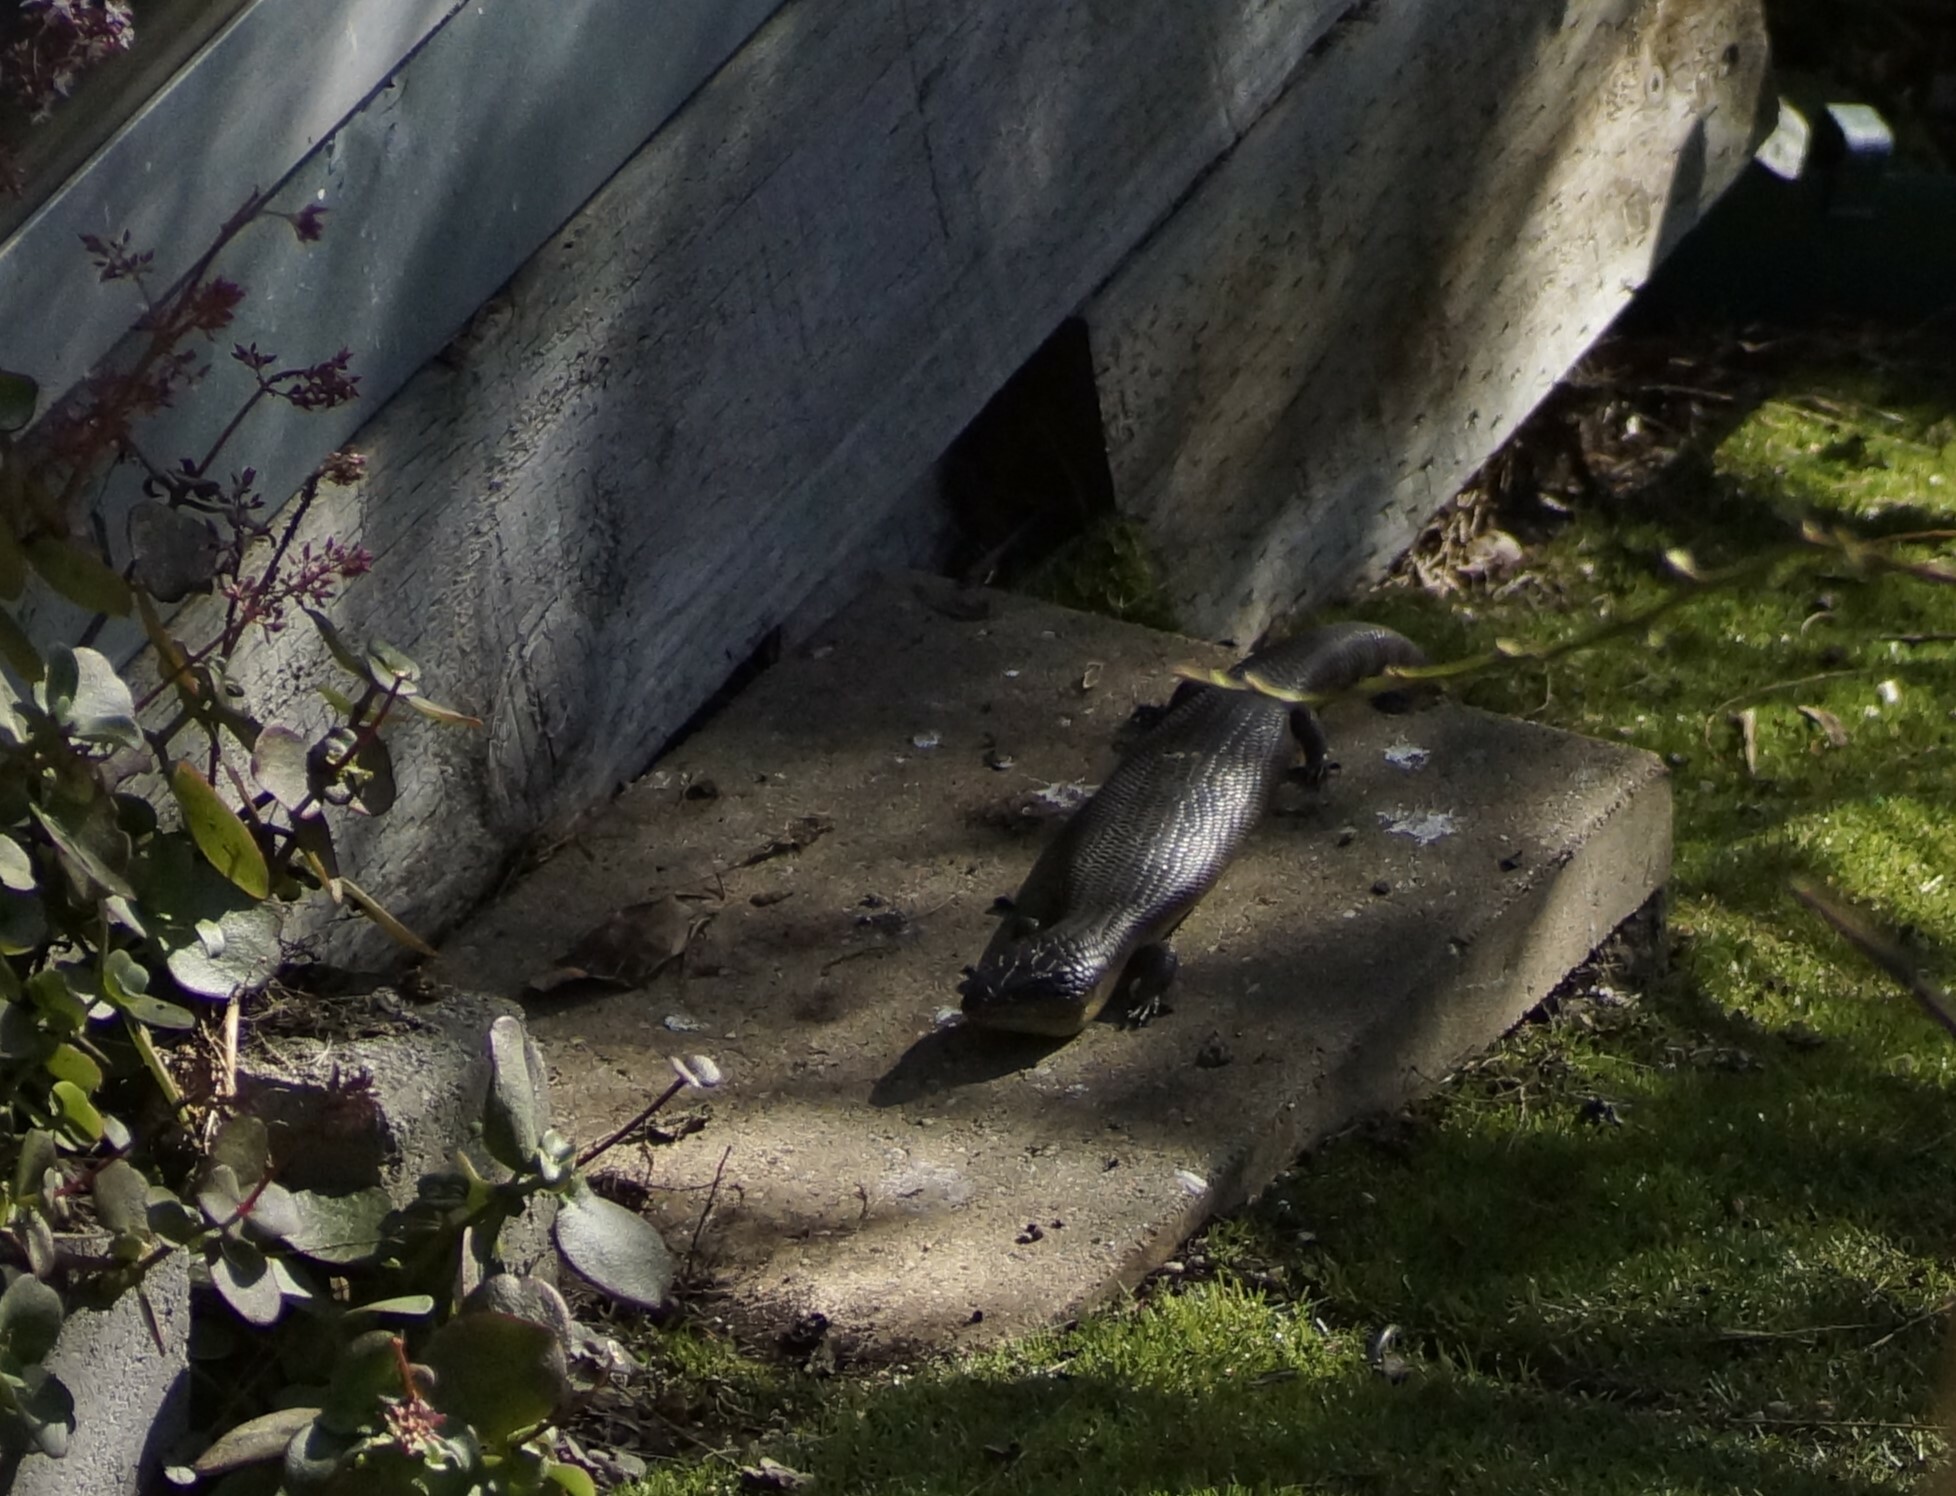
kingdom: Animalia
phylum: Chordata
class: Squamata
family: Scincidae
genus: Tiliqua
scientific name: Tiliqua scincoides
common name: Common bluetongue
